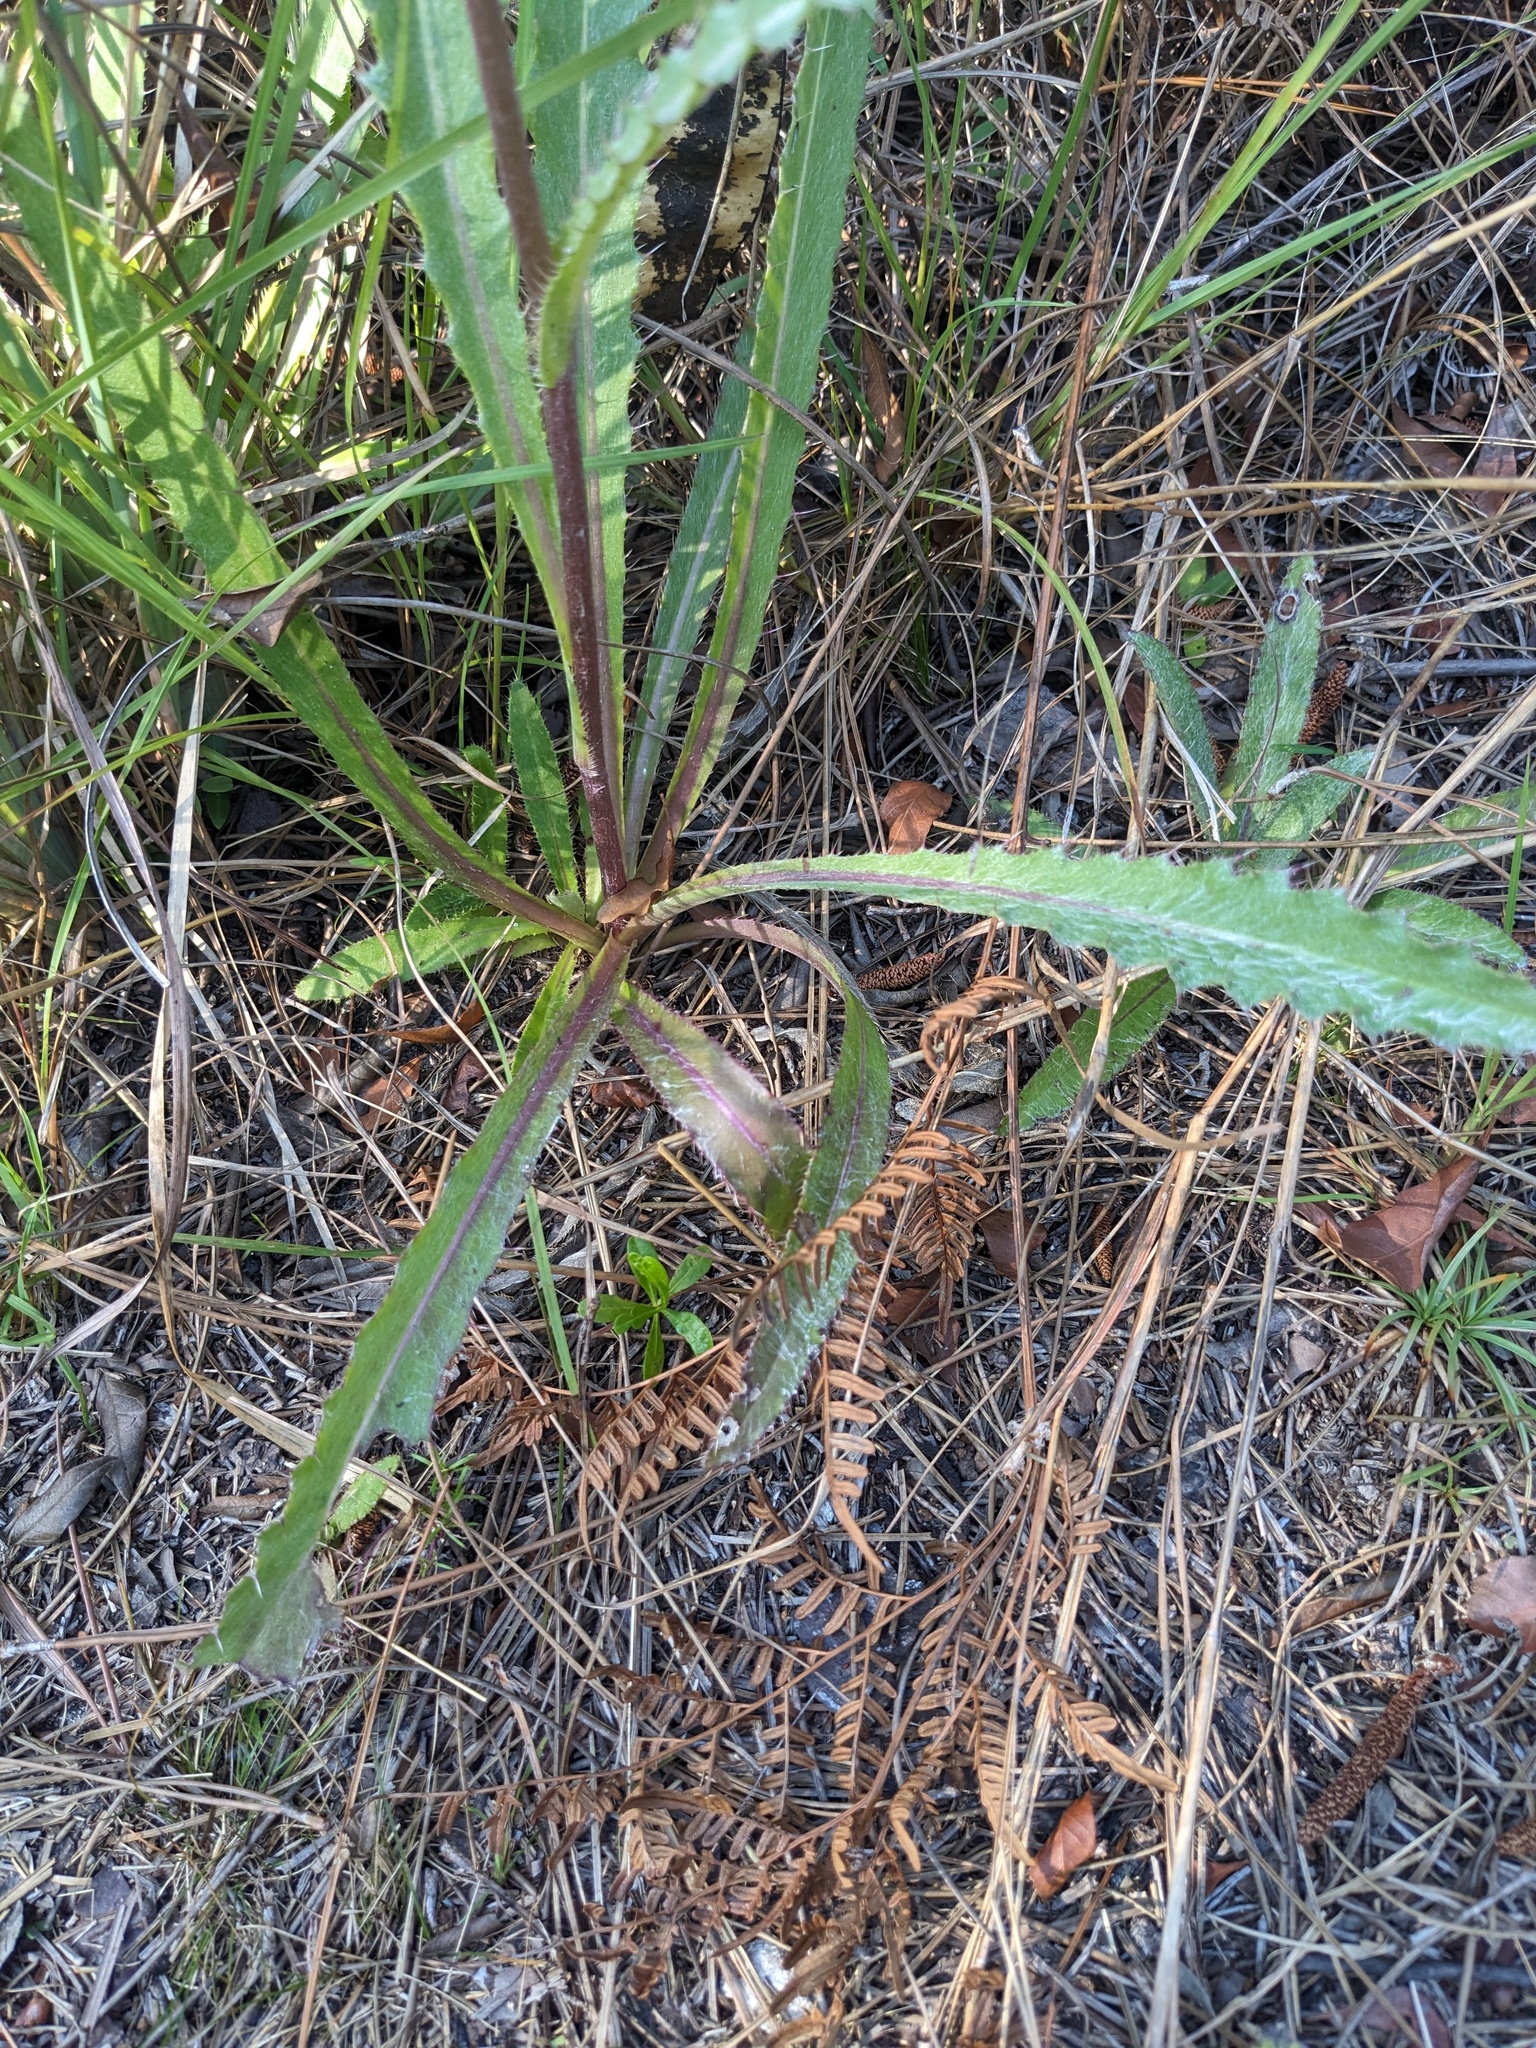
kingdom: Plantae
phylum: Tracheophyta
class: Magnoliopsida
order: Asterales
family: Asteraceae
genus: Cirsium
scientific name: Cirsium horridulum
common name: Bristly thistle
